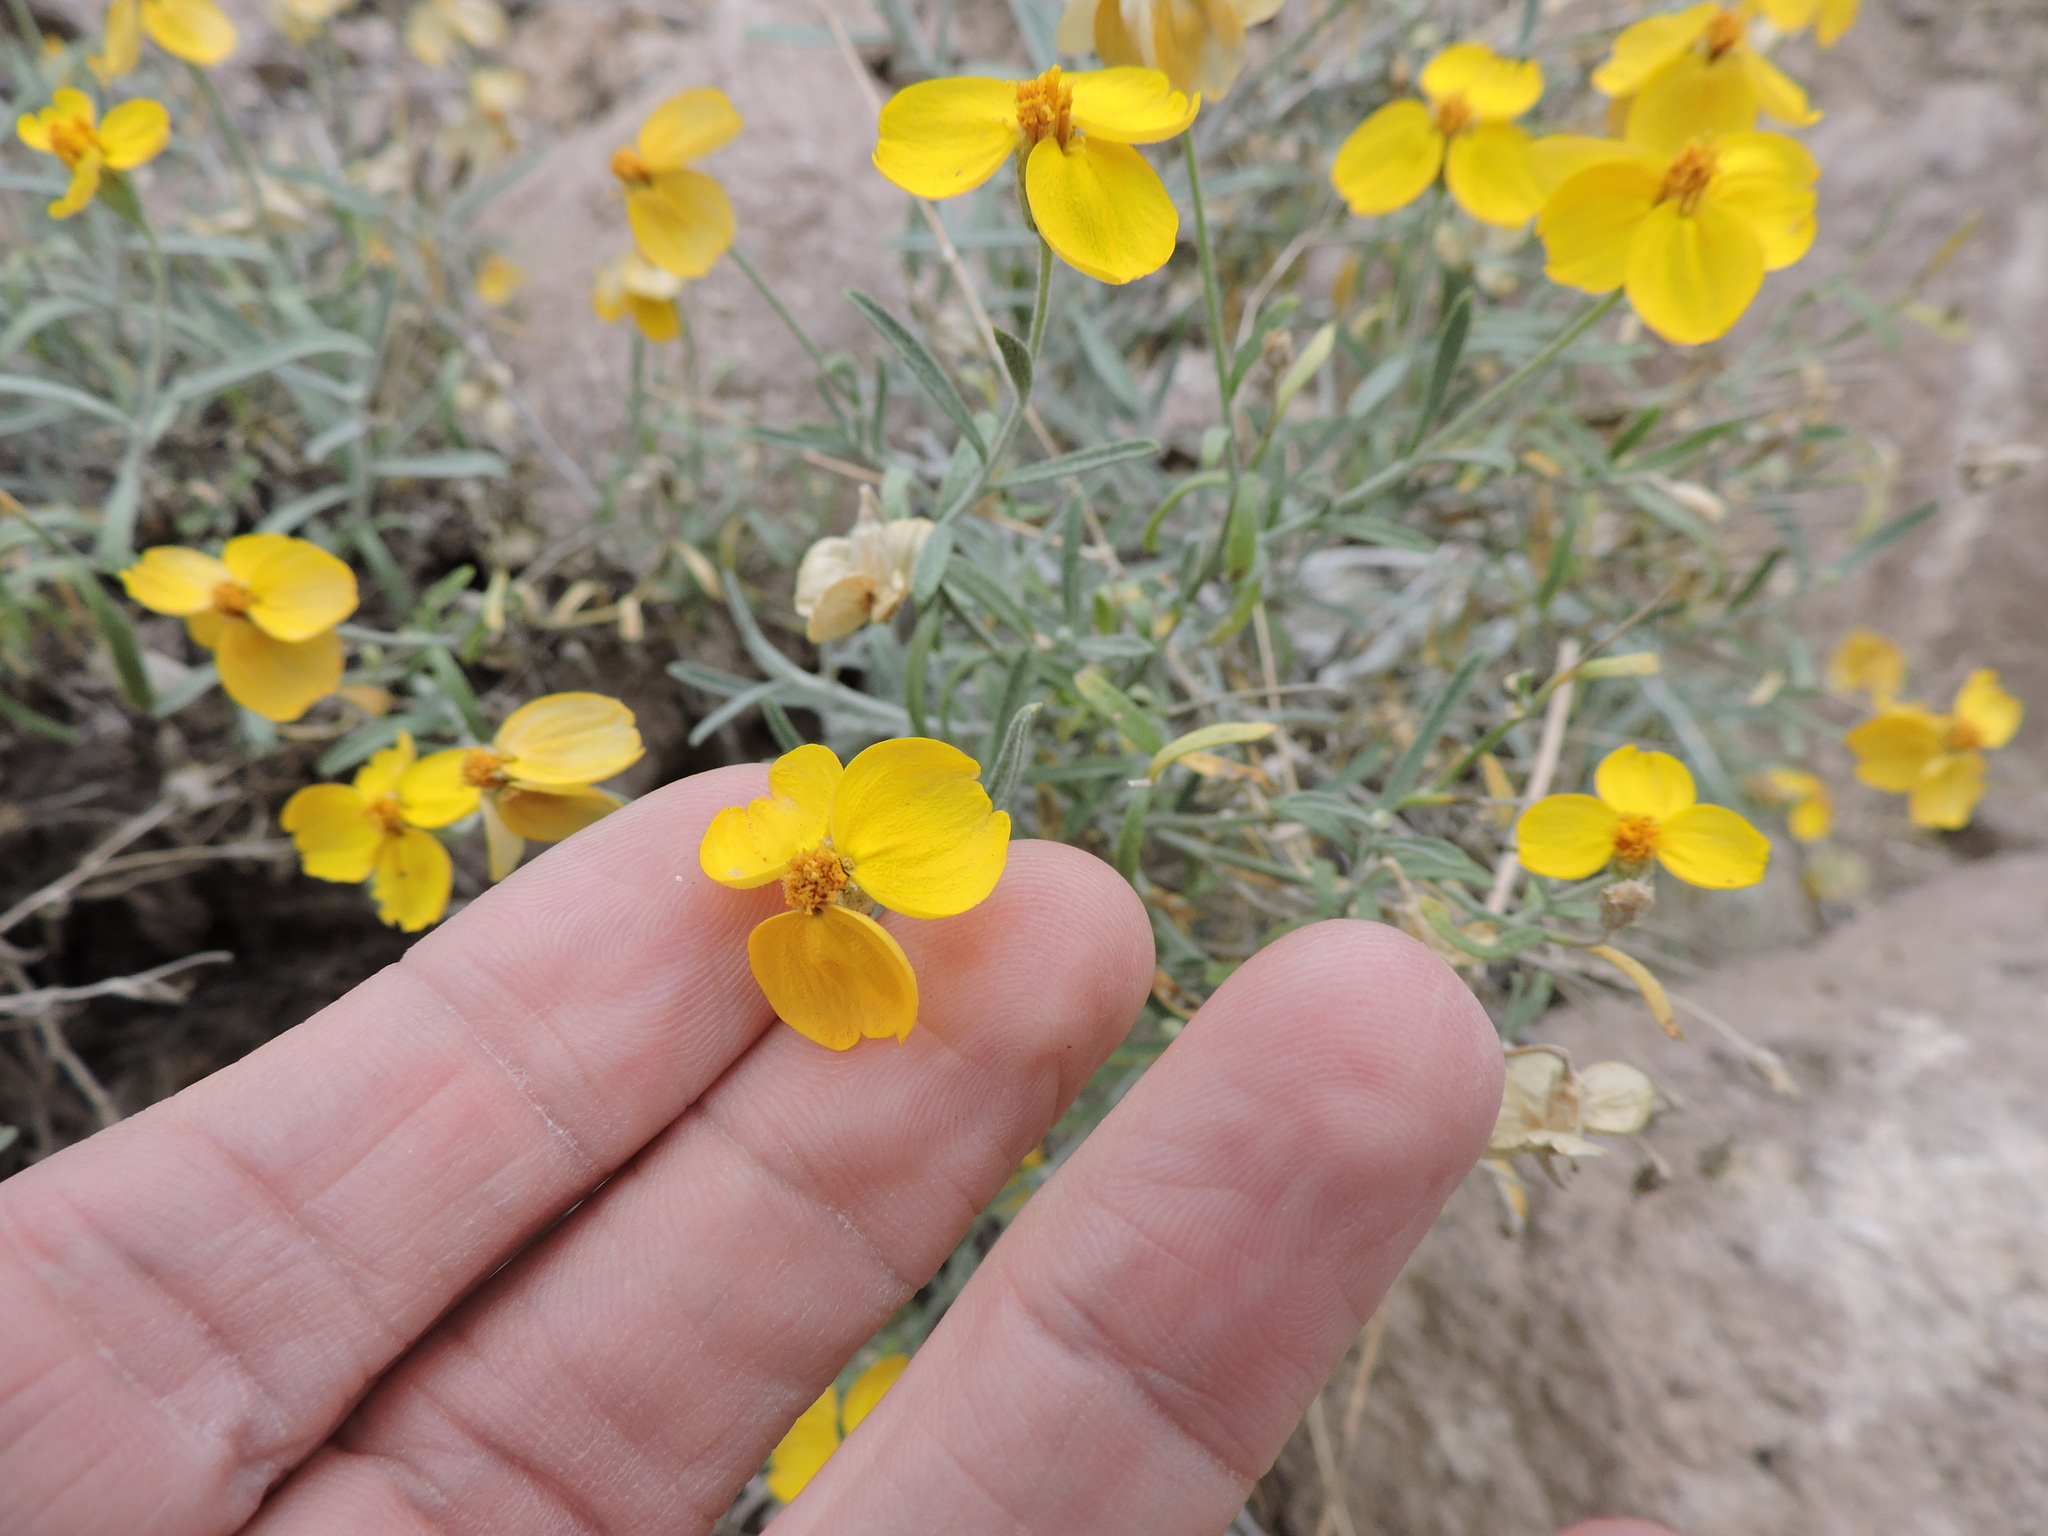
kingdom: Plantae
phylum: Tracheophyta
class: Magnoliopsida
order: Asterales
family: Asteraceae
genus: Psilostrophe
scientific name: Psilostrophe cooperi
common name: White-stem paper-flower
